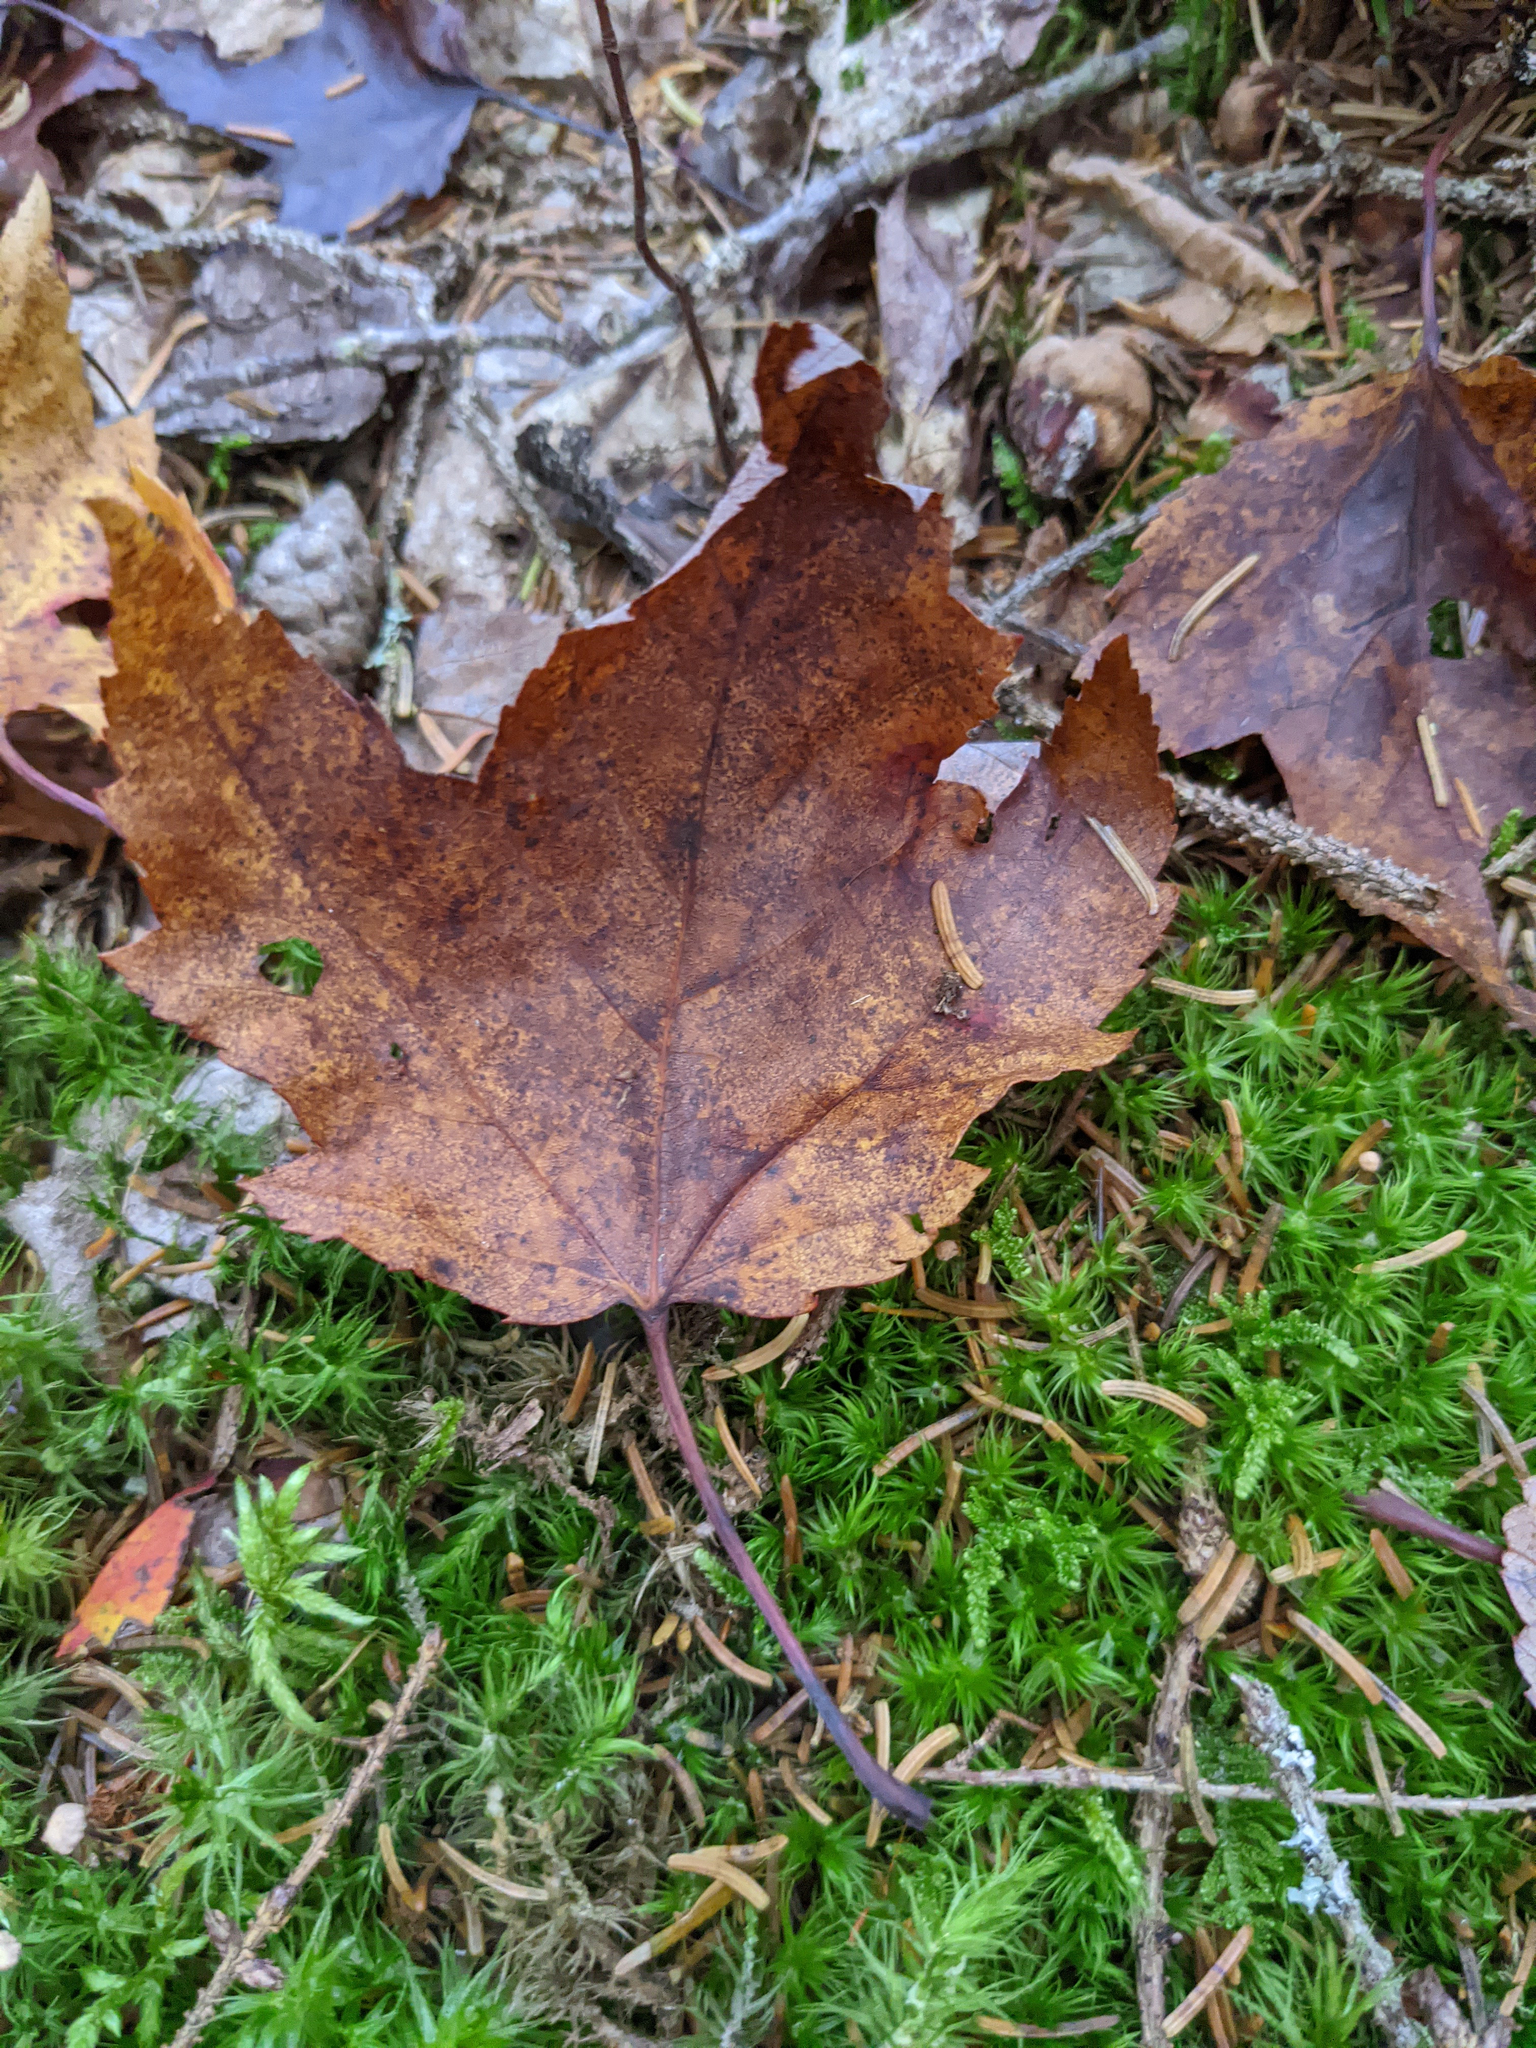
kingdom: Plantae
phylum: Tracheophyta
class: Magnoliopsida
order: Sapindales
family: Sapindaceae
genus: Acer
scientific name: Acer rubrum
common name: Red maple
